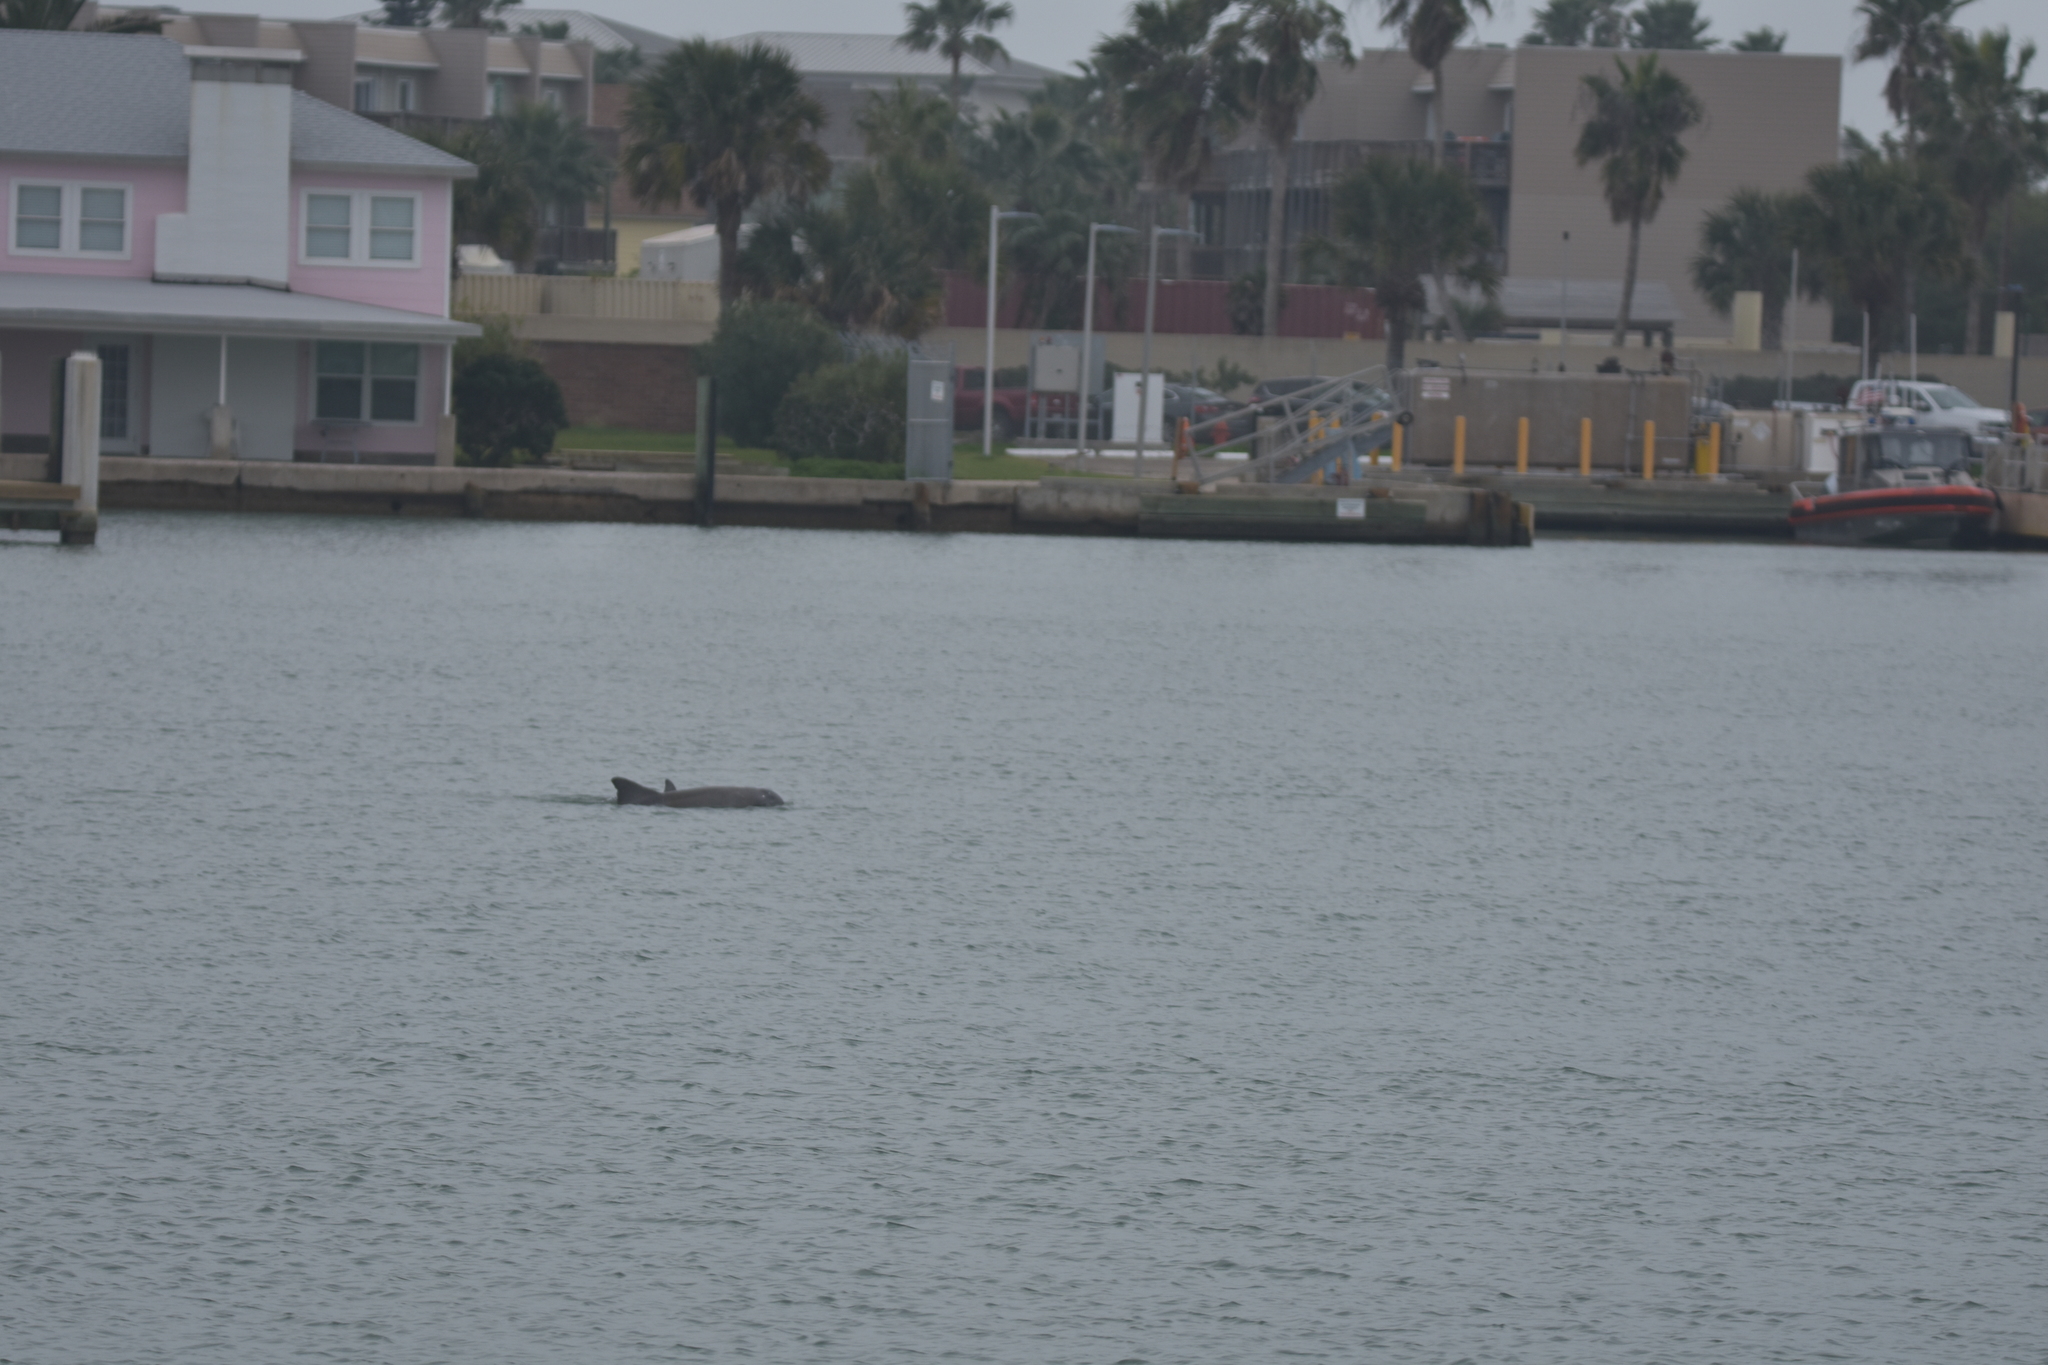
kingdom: Animalia
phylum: Chordata
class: Mammalia
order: Cetacea
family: Delphinidae
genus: Tursiops
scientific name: Tursiops truncatus
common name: Bottlenose dolphin
